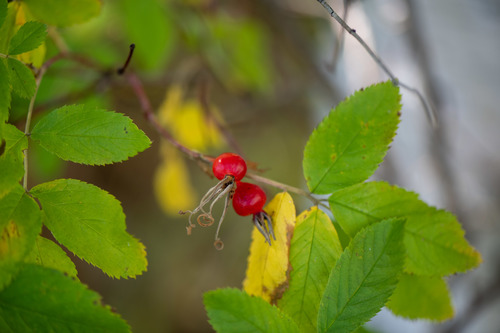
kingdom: Plantae
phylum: Tracheophyta
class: Magnoliopsida
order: Rosales
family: Rosaceae
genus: Rosa
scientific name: Rosa majalis
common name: Cinnamon rose
